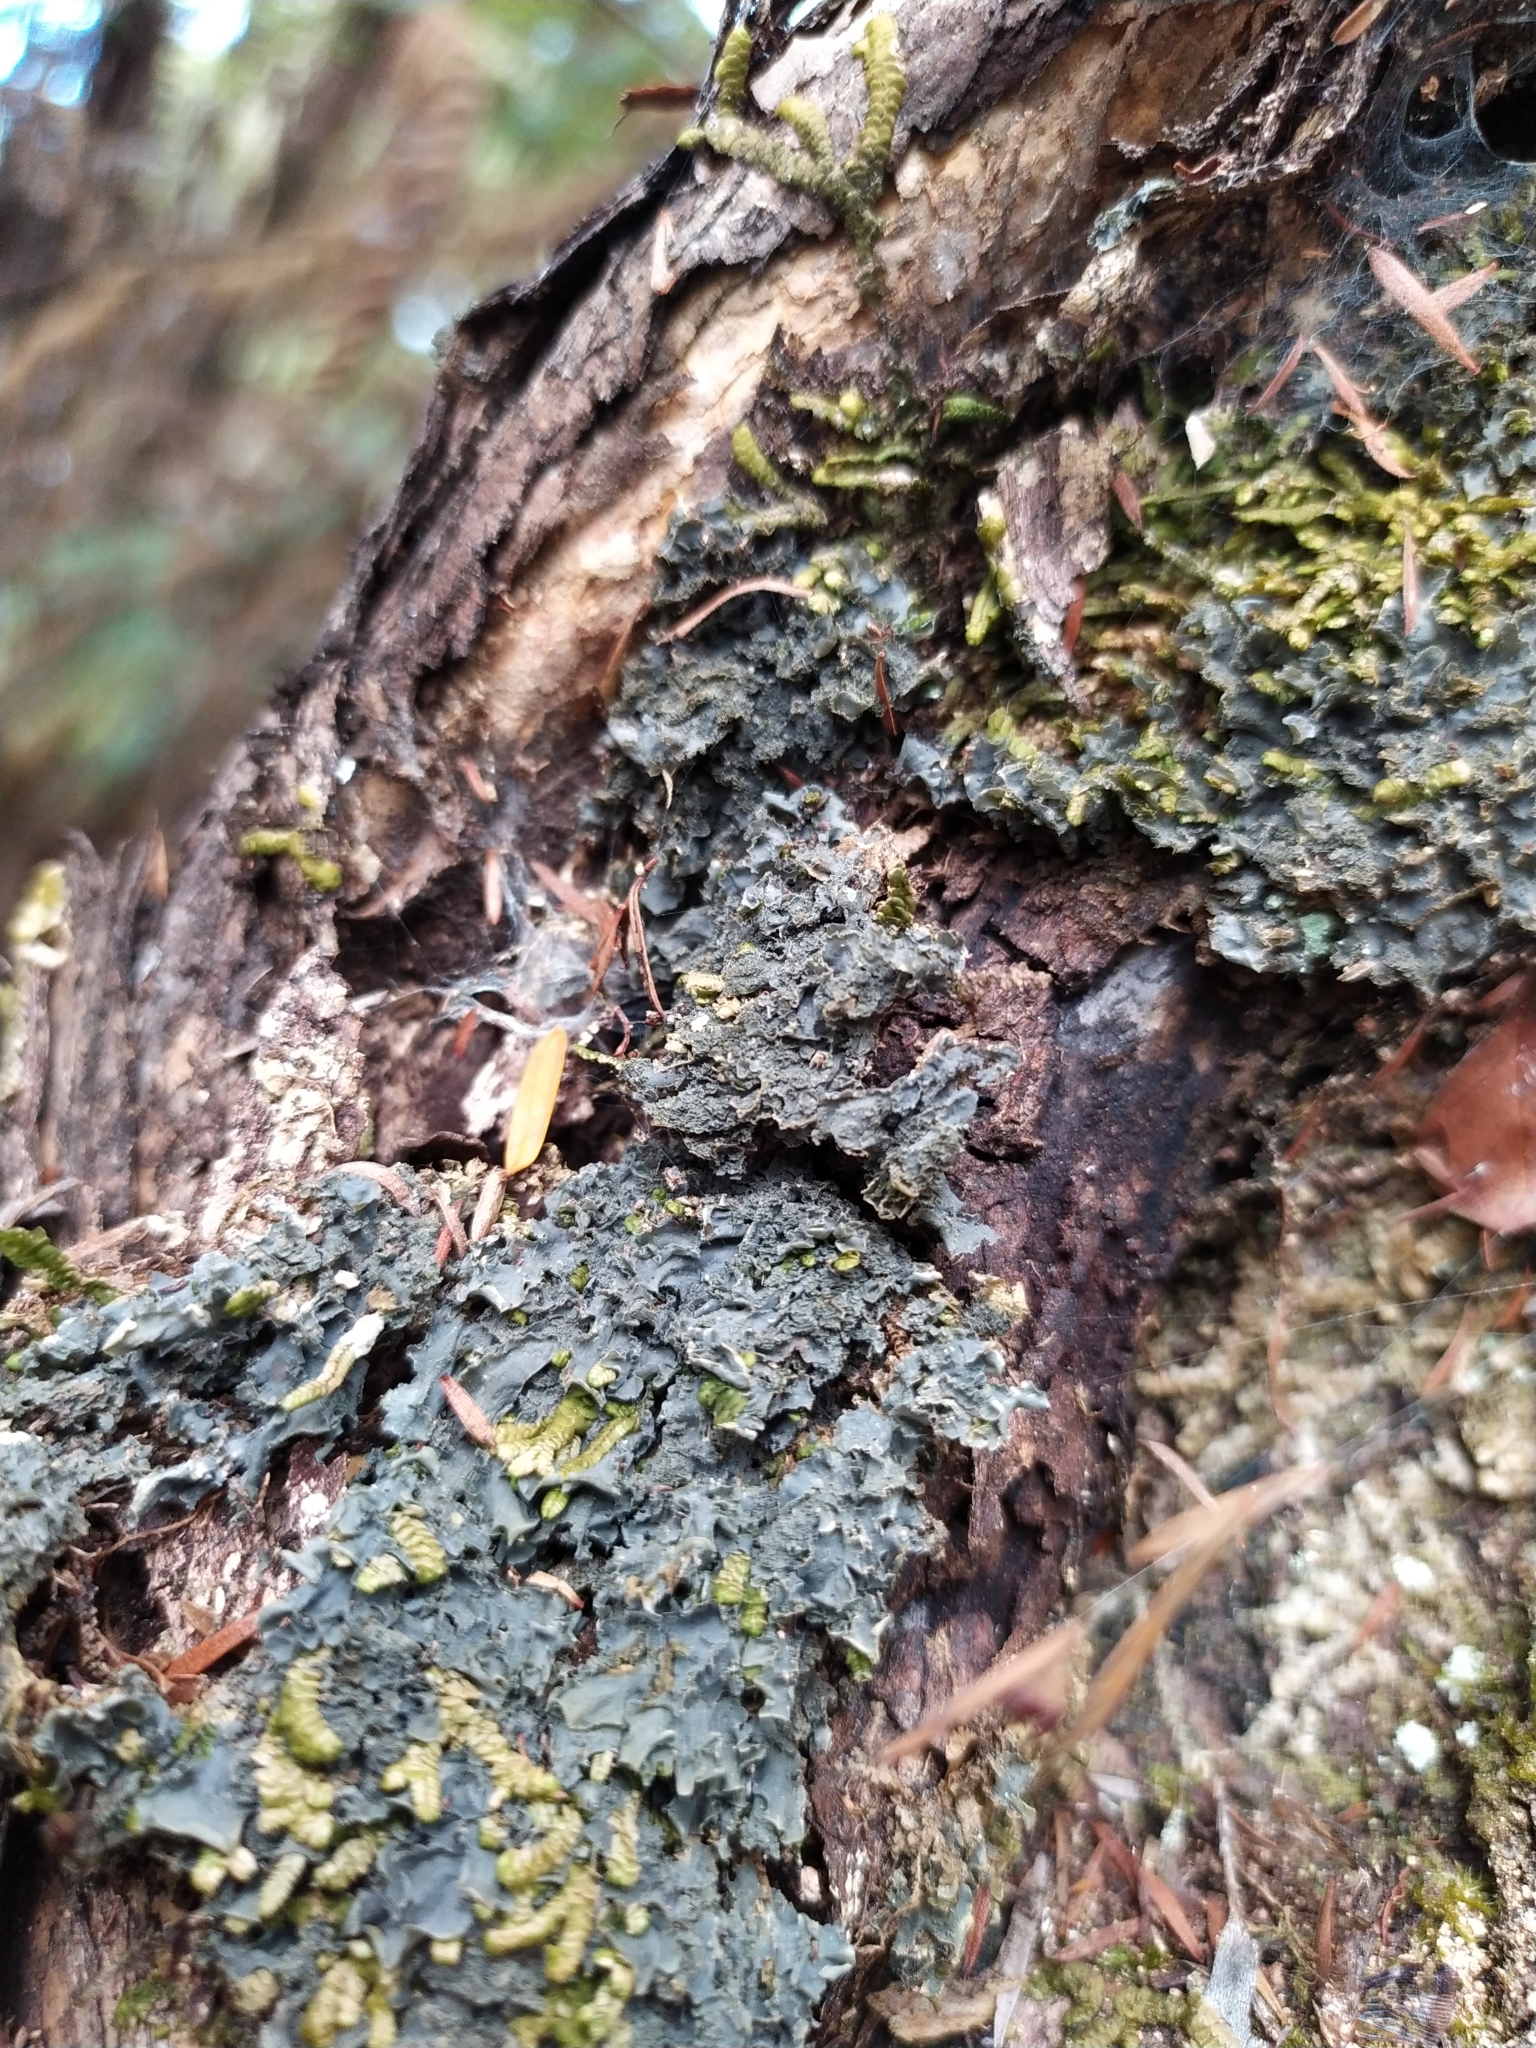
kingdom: Fungi
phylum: Ascomycota
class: Lecanoromycetes
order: Peltigerales
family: Collemataceae
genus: Leptogium
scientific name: Leptogium denticulatum
